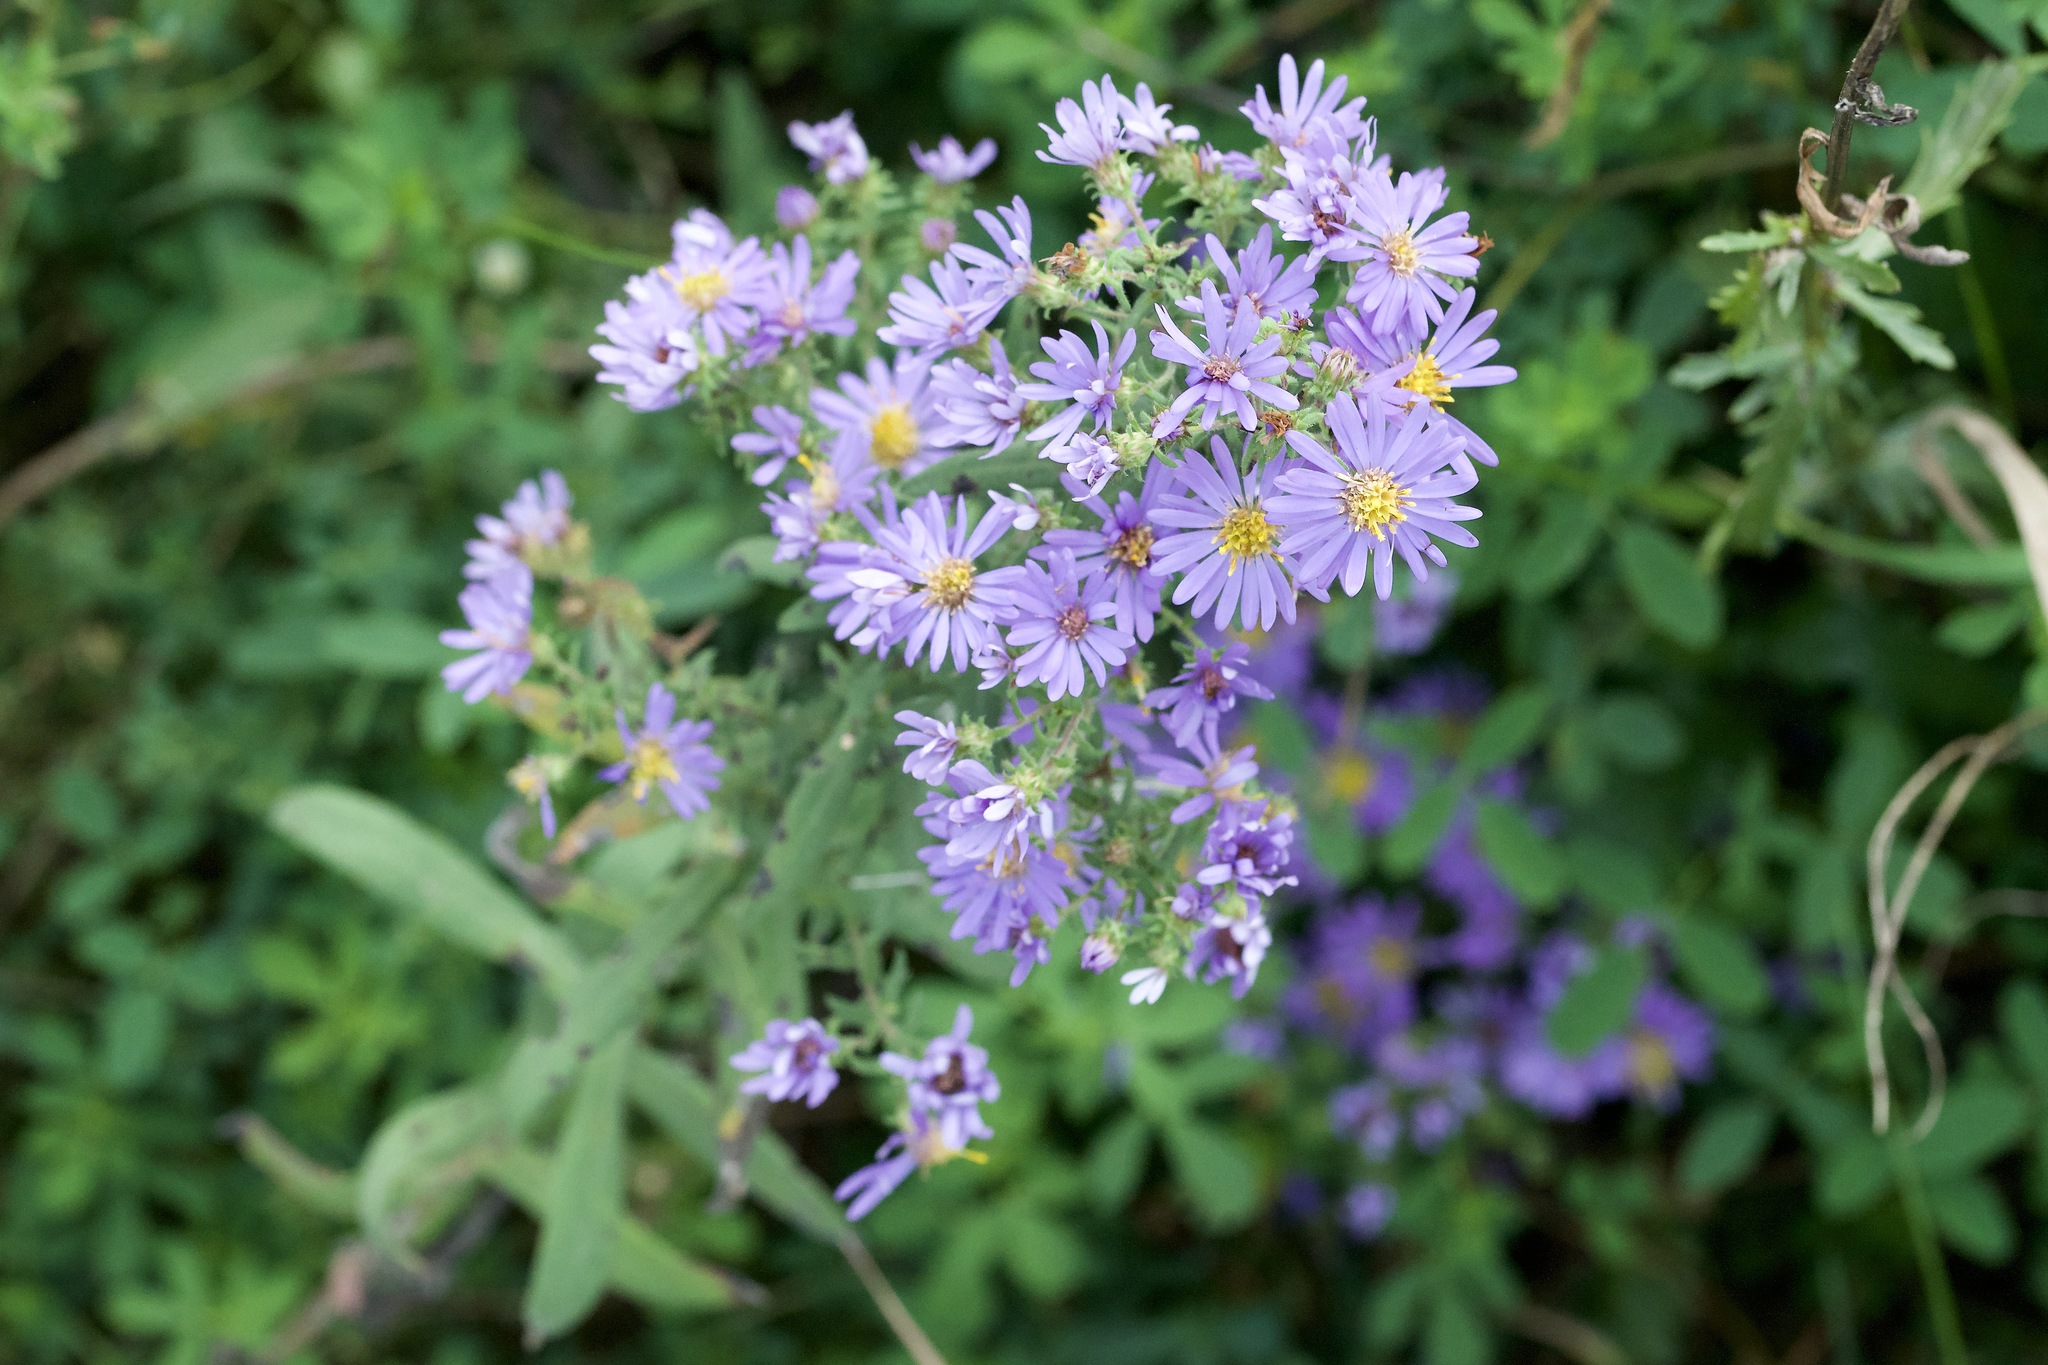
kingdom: Plantae
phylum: Tracheophyta
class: Magnoliopsida
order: Asterales
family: Asteraceae
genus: Symphyotrichum
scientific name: Symphyotrichum amethystinum
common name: Amethyst aster
